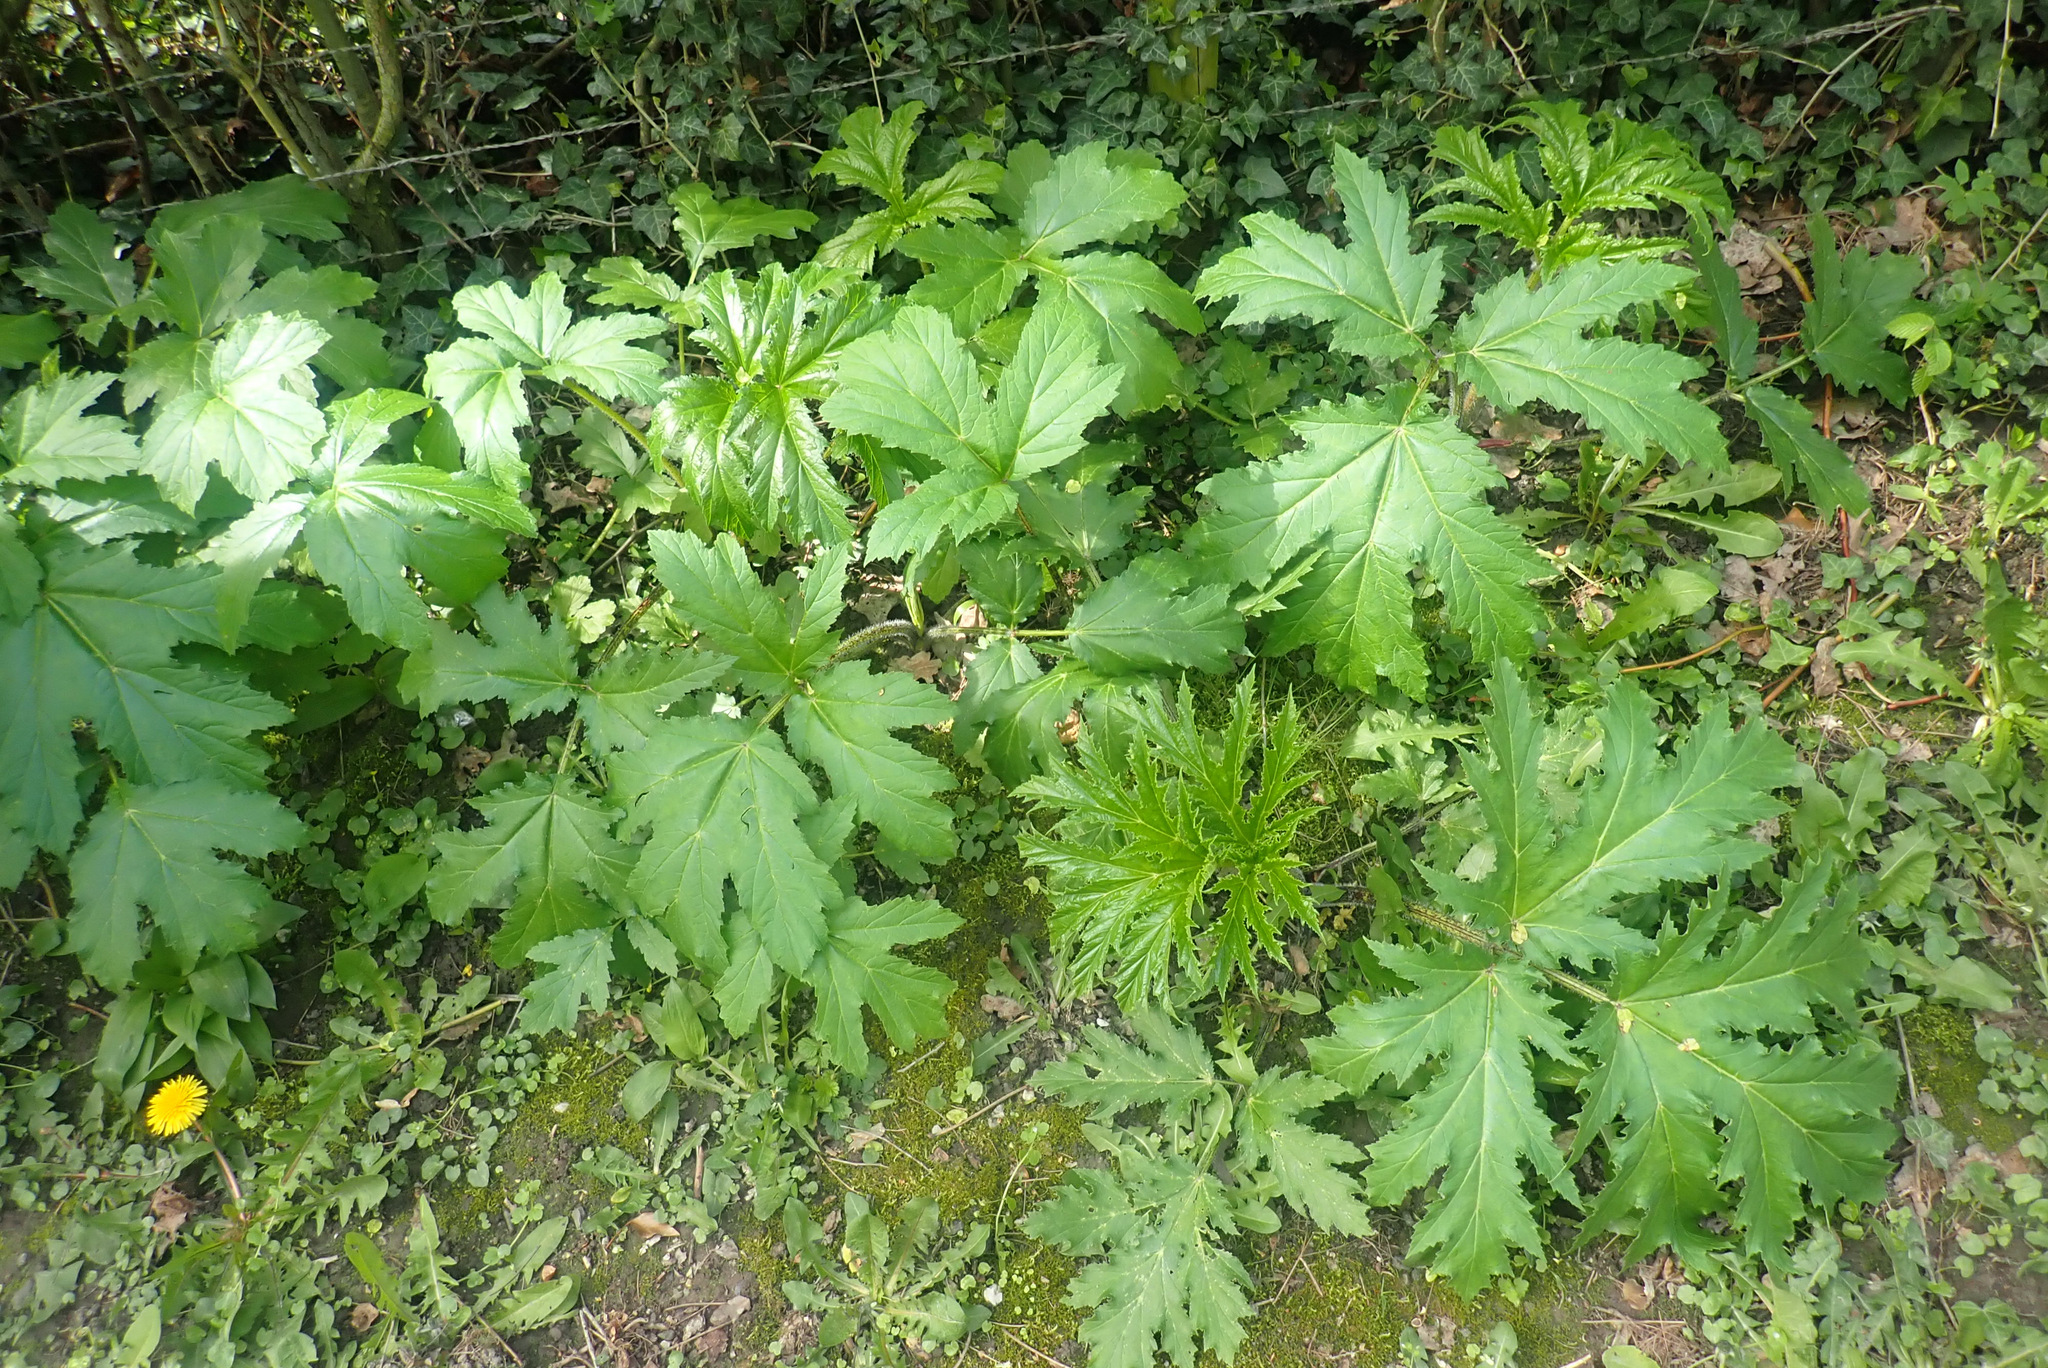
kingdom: Plantae
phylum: Tracheophyta
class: Magnoliopsida
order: Apiales
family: Apiaceae
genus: Heracleum
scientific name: Heracleum mantegazzianum
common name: Giant hogweed
